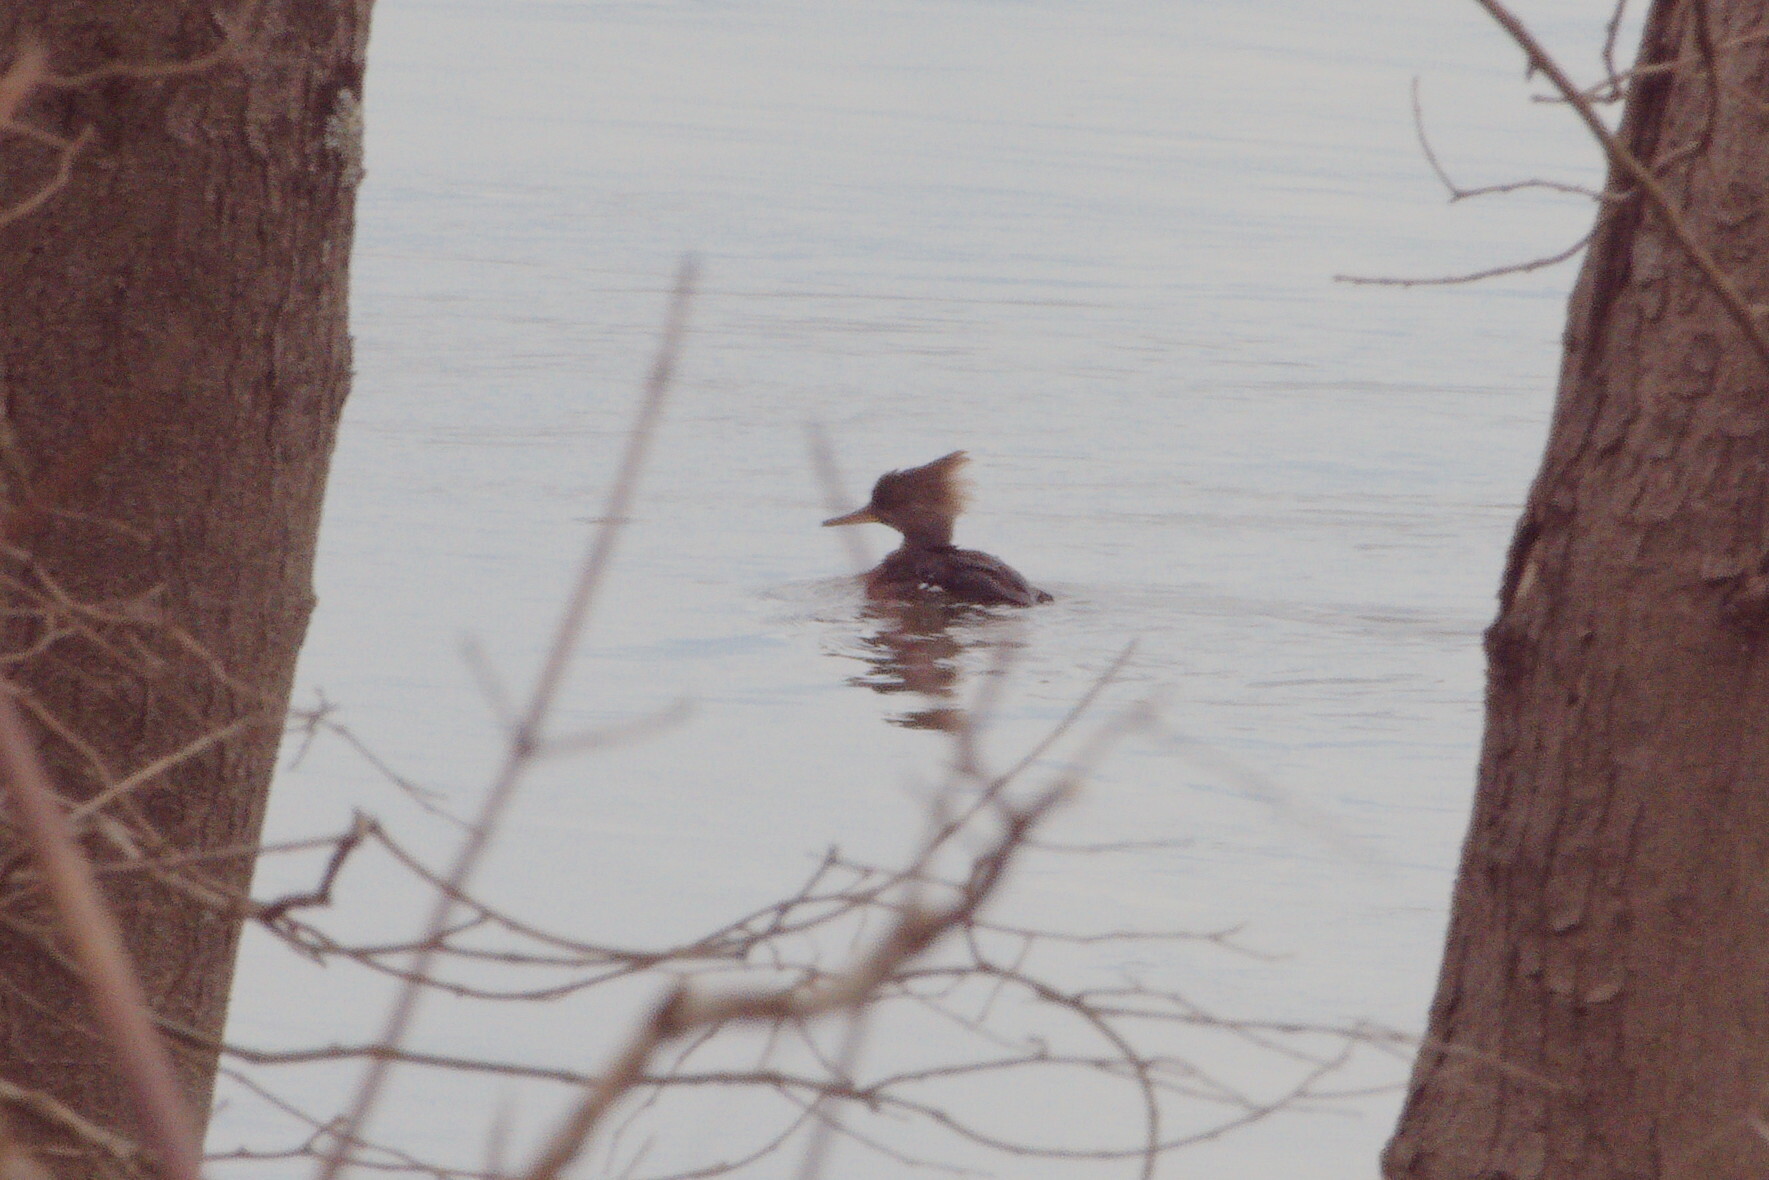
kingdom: Animalia
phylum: Chordata
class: Aves
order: Anseriformes
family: Anatidae
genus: Lophodytes
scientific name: Lophodytes cucullatus
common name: Hooded merganser
